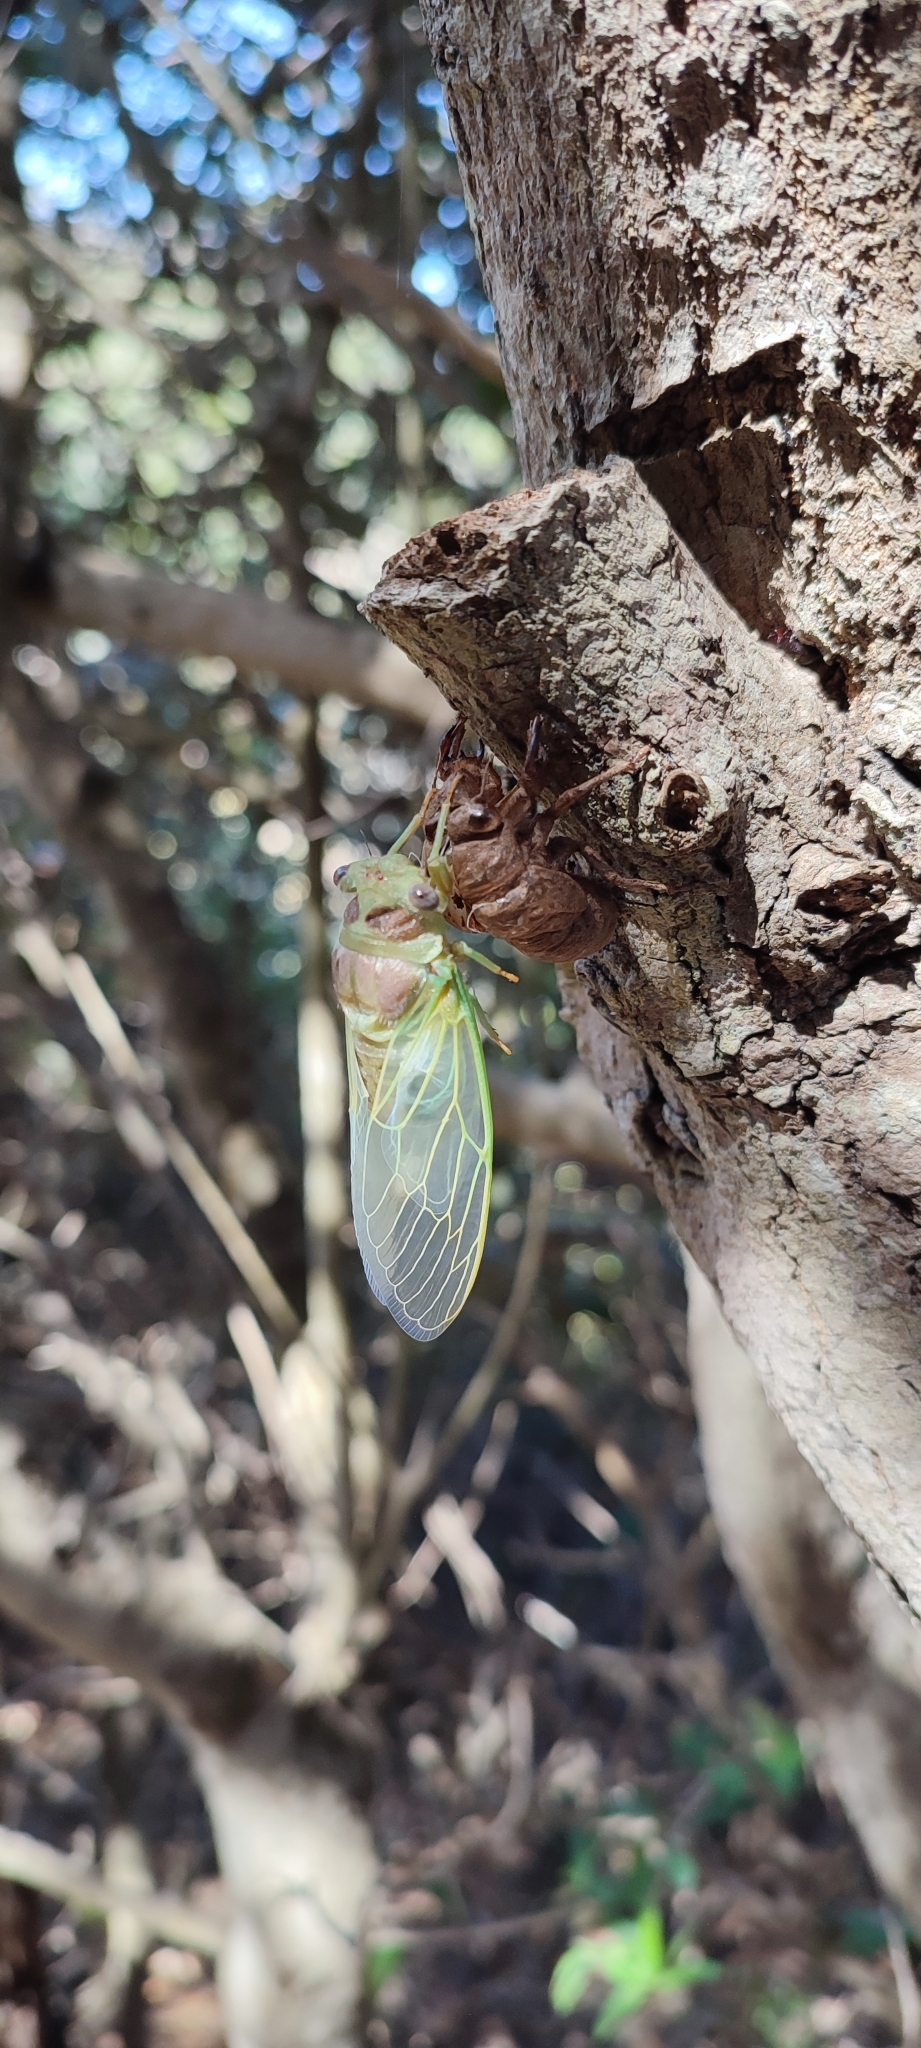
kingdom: Animalia
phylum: Arthropoda
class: Insecta
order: Hemiptera
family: Cicadidae
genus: Lyristes
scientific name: Lyristes plebejus
